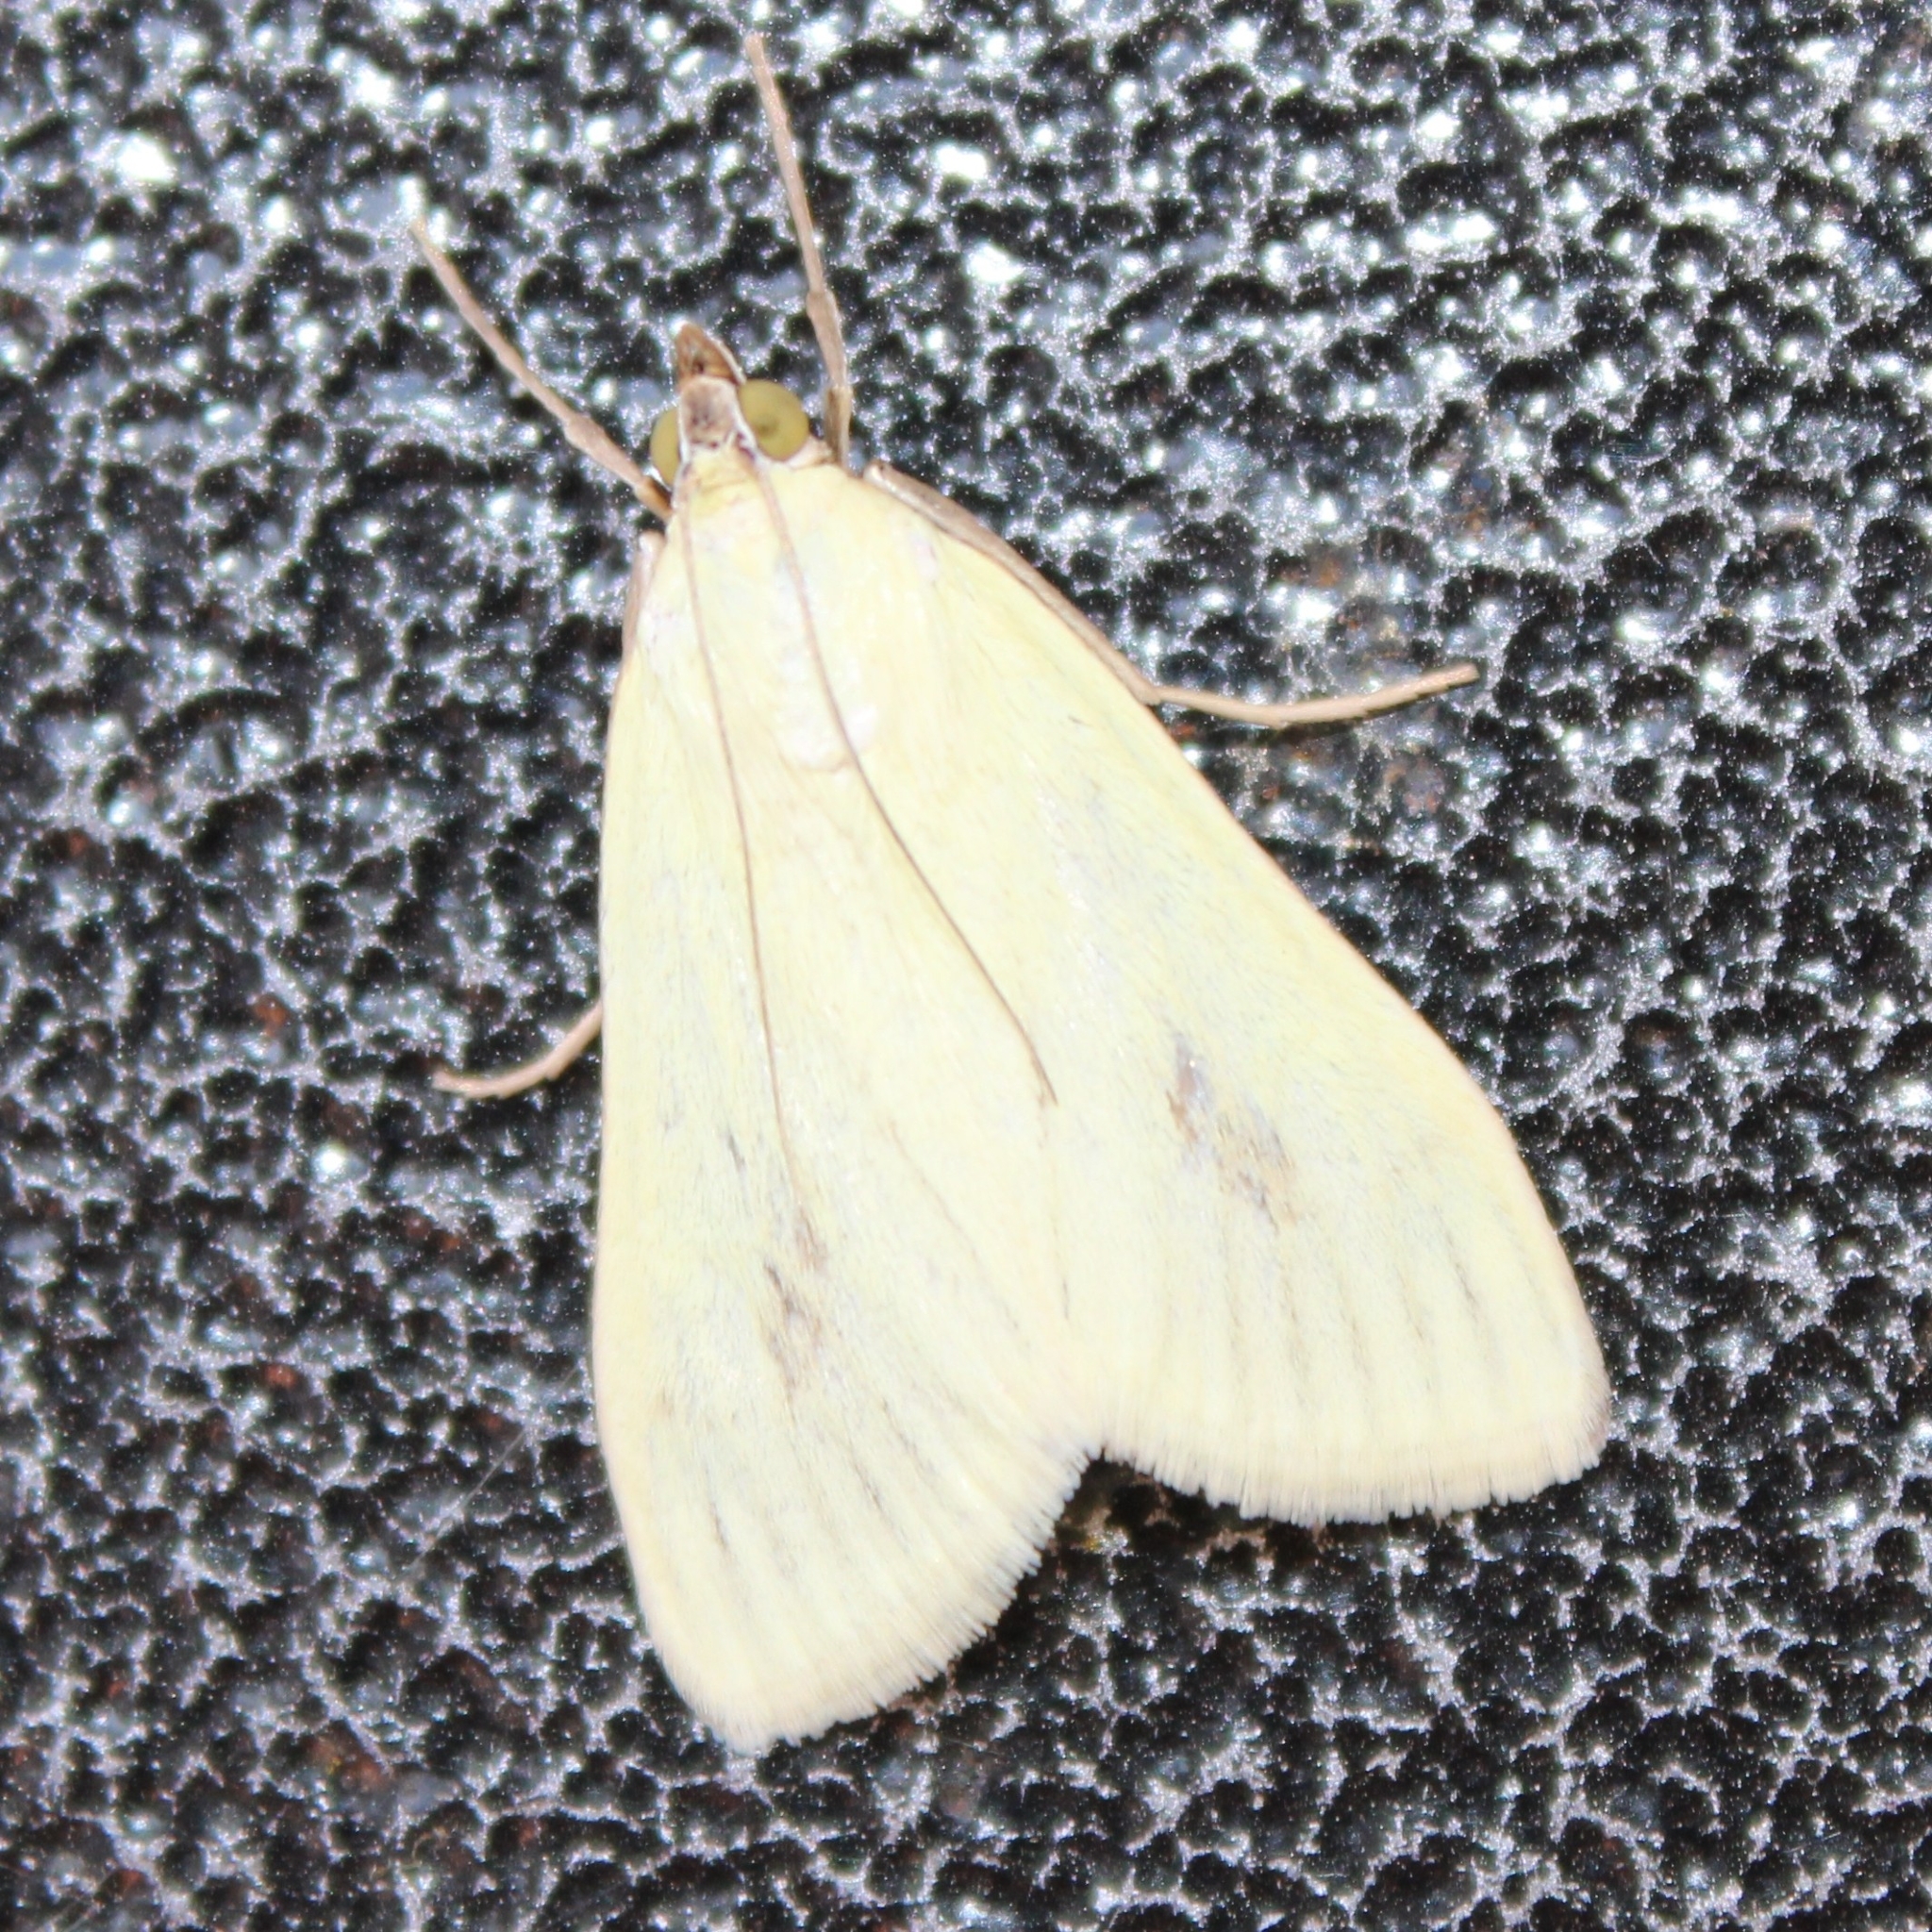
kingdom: Animalia
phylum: Arthropoda
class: Insecta
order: Lepidoptera
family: Crambidae
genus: Sitochroa
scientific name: Sitochroa palealis
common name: Greenish-yellow sitochroa moth
